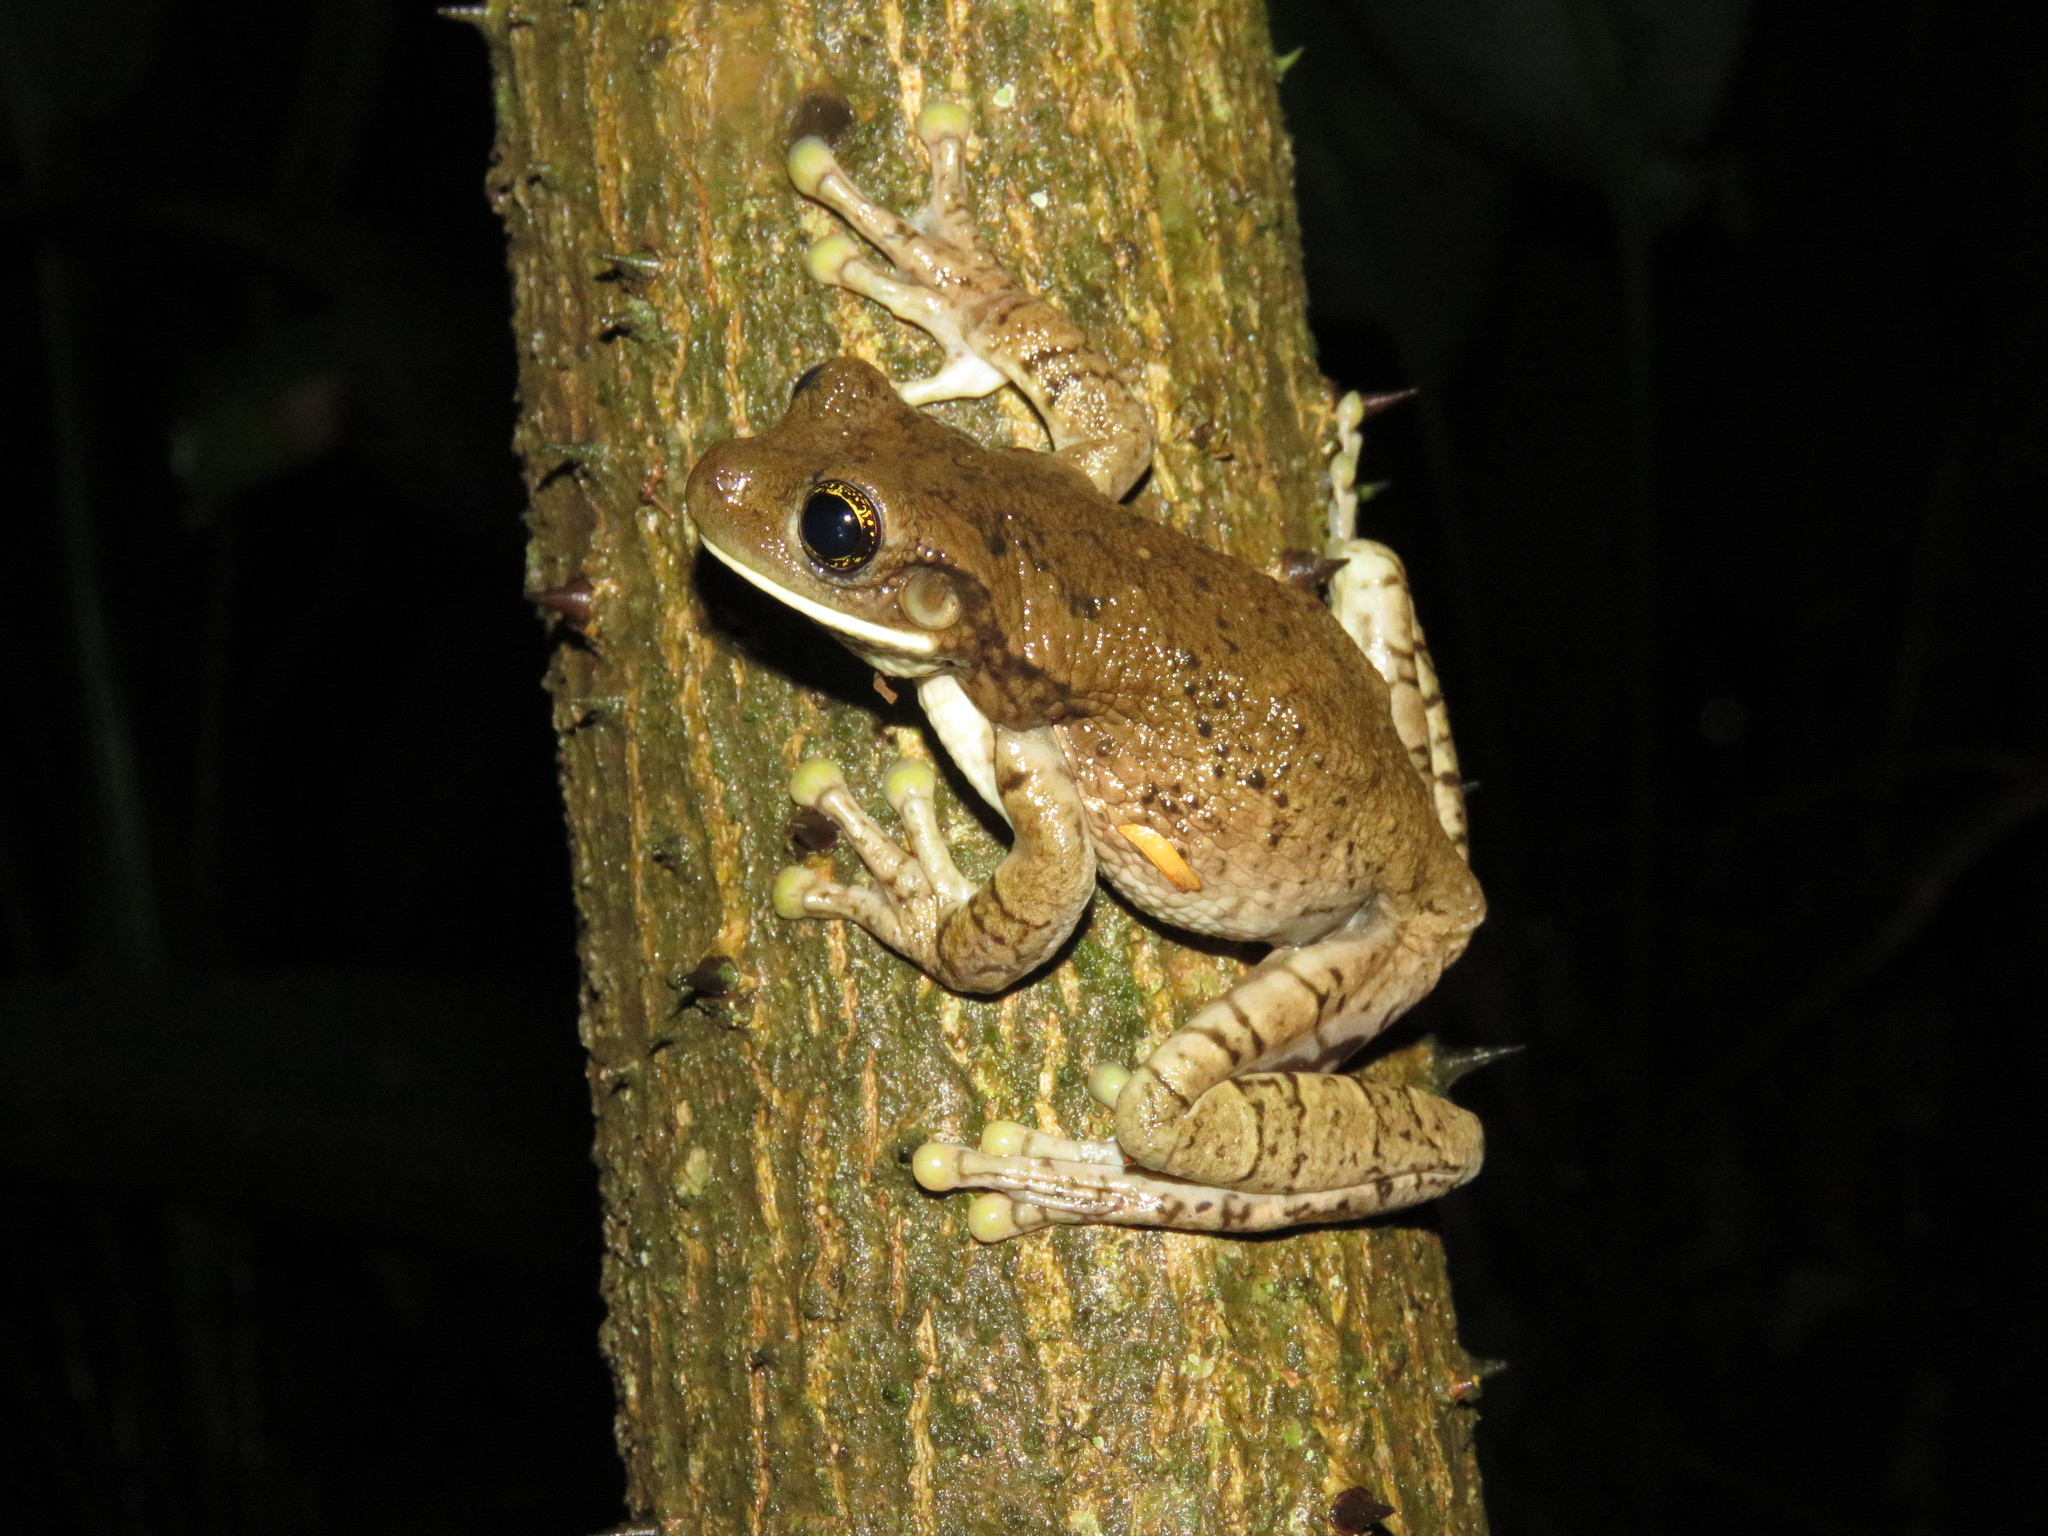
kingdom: Animalia
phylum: Chordata
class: Amphibia
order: Anura
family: Hylidae
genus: Trachycephalus
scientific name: Trachycephalus typhonius
